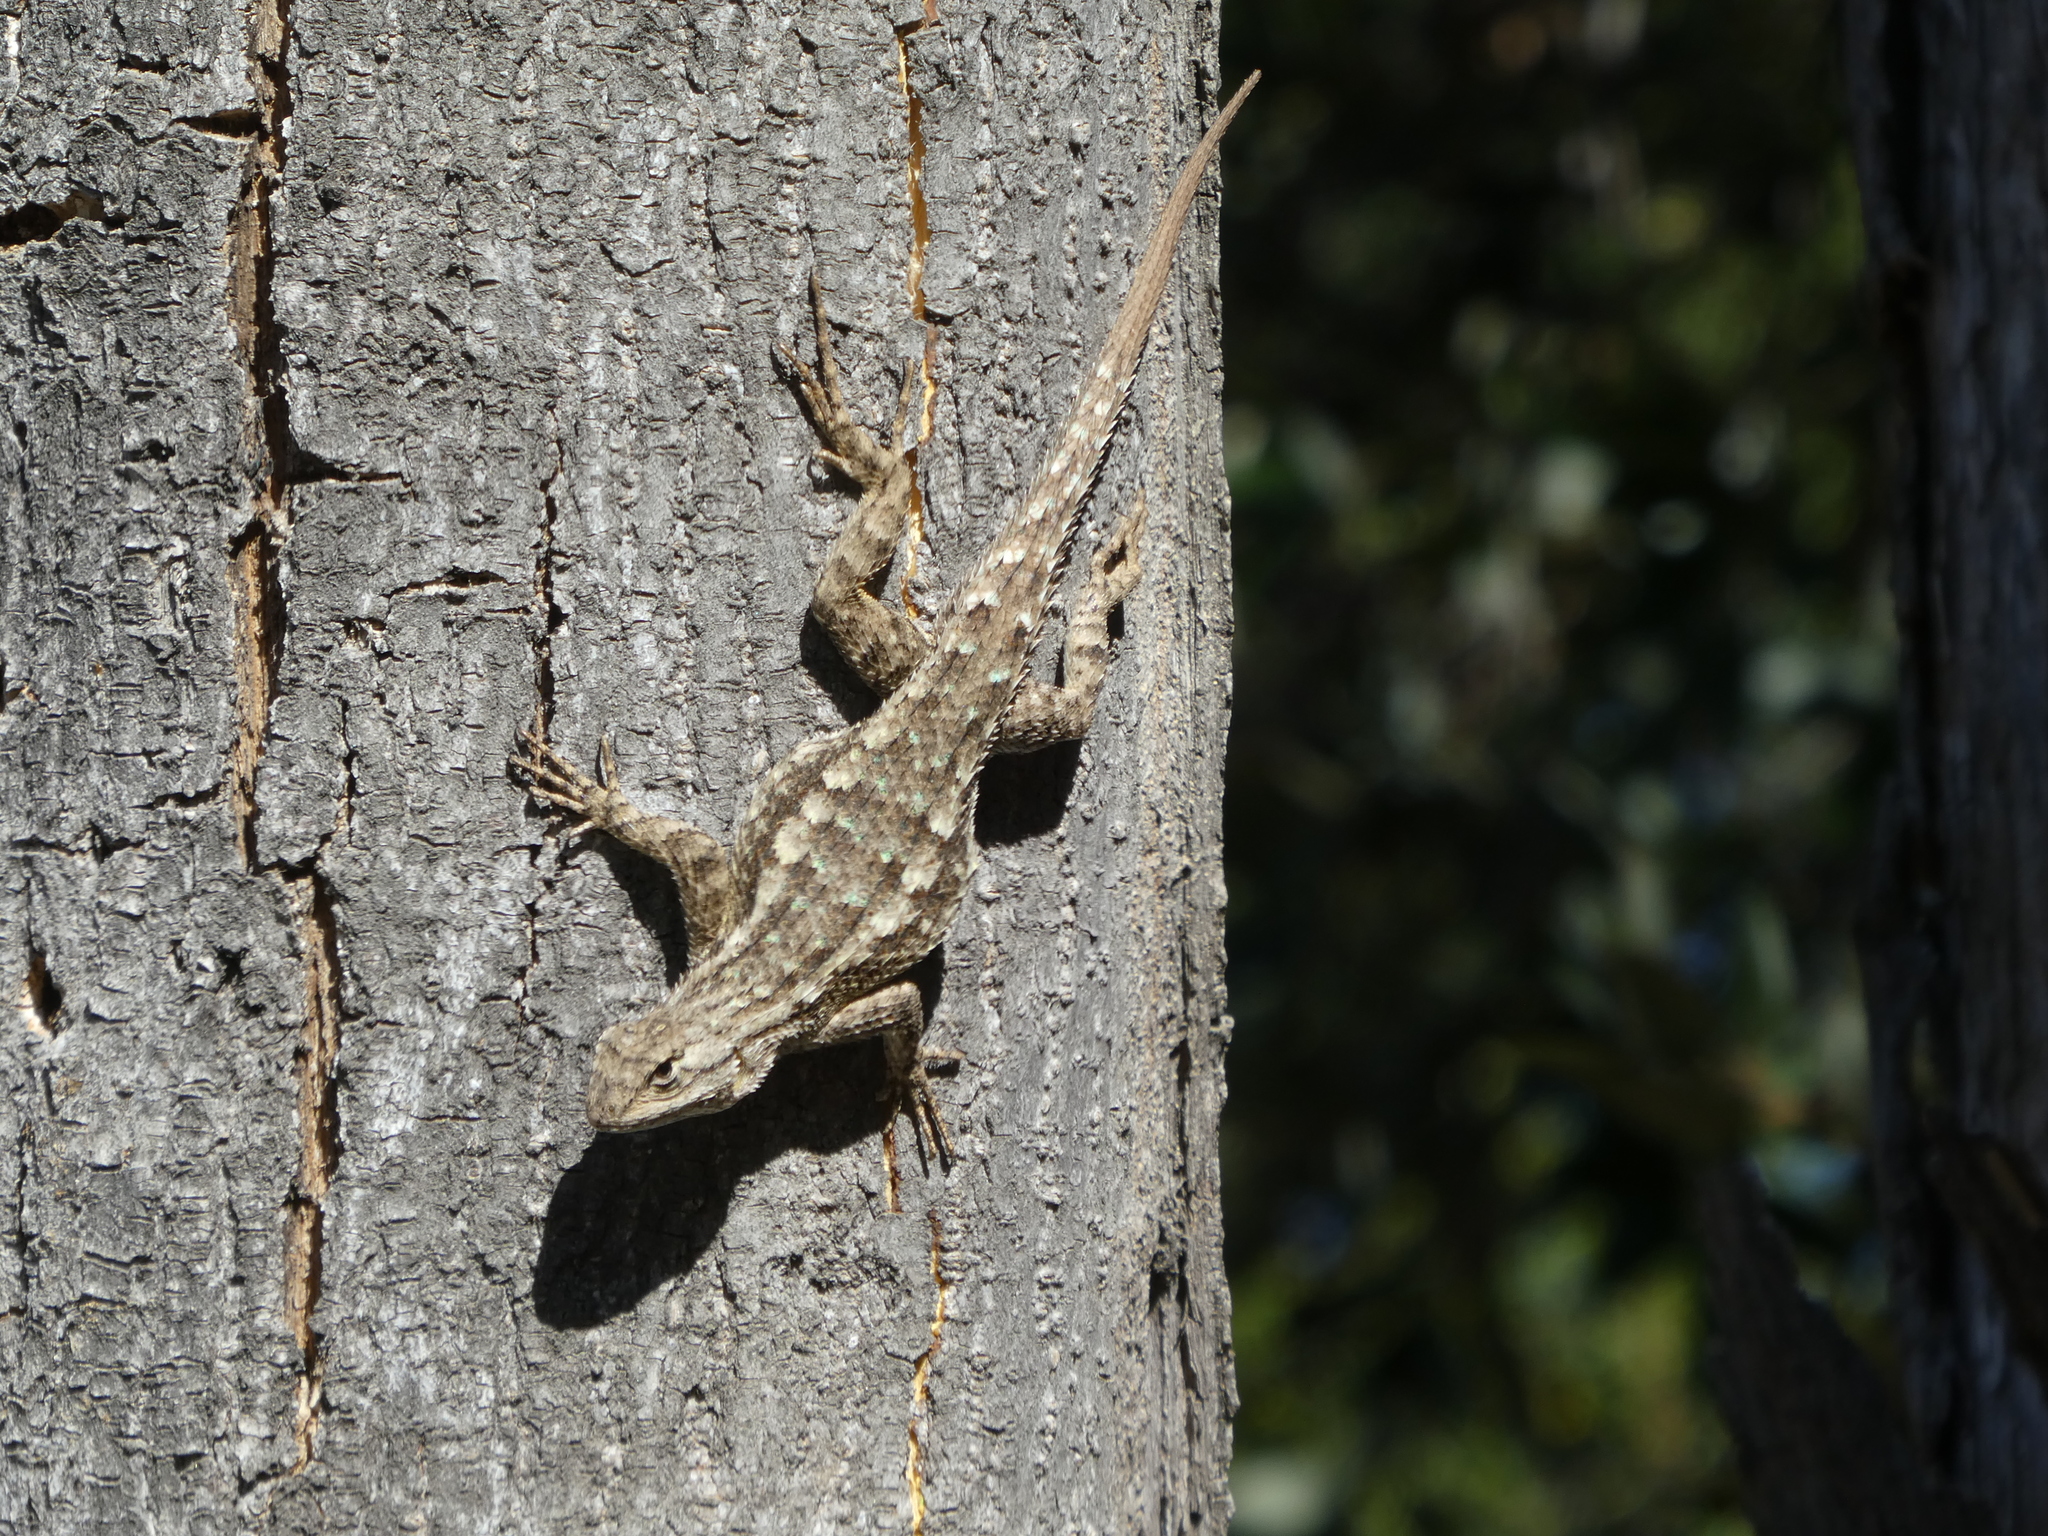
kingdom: Animalia
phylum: Chordata
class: Squamata
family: Phrynosomatidae
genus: Sceloporus
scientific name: Sceloporus occidentalis
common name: Western fence lizard
